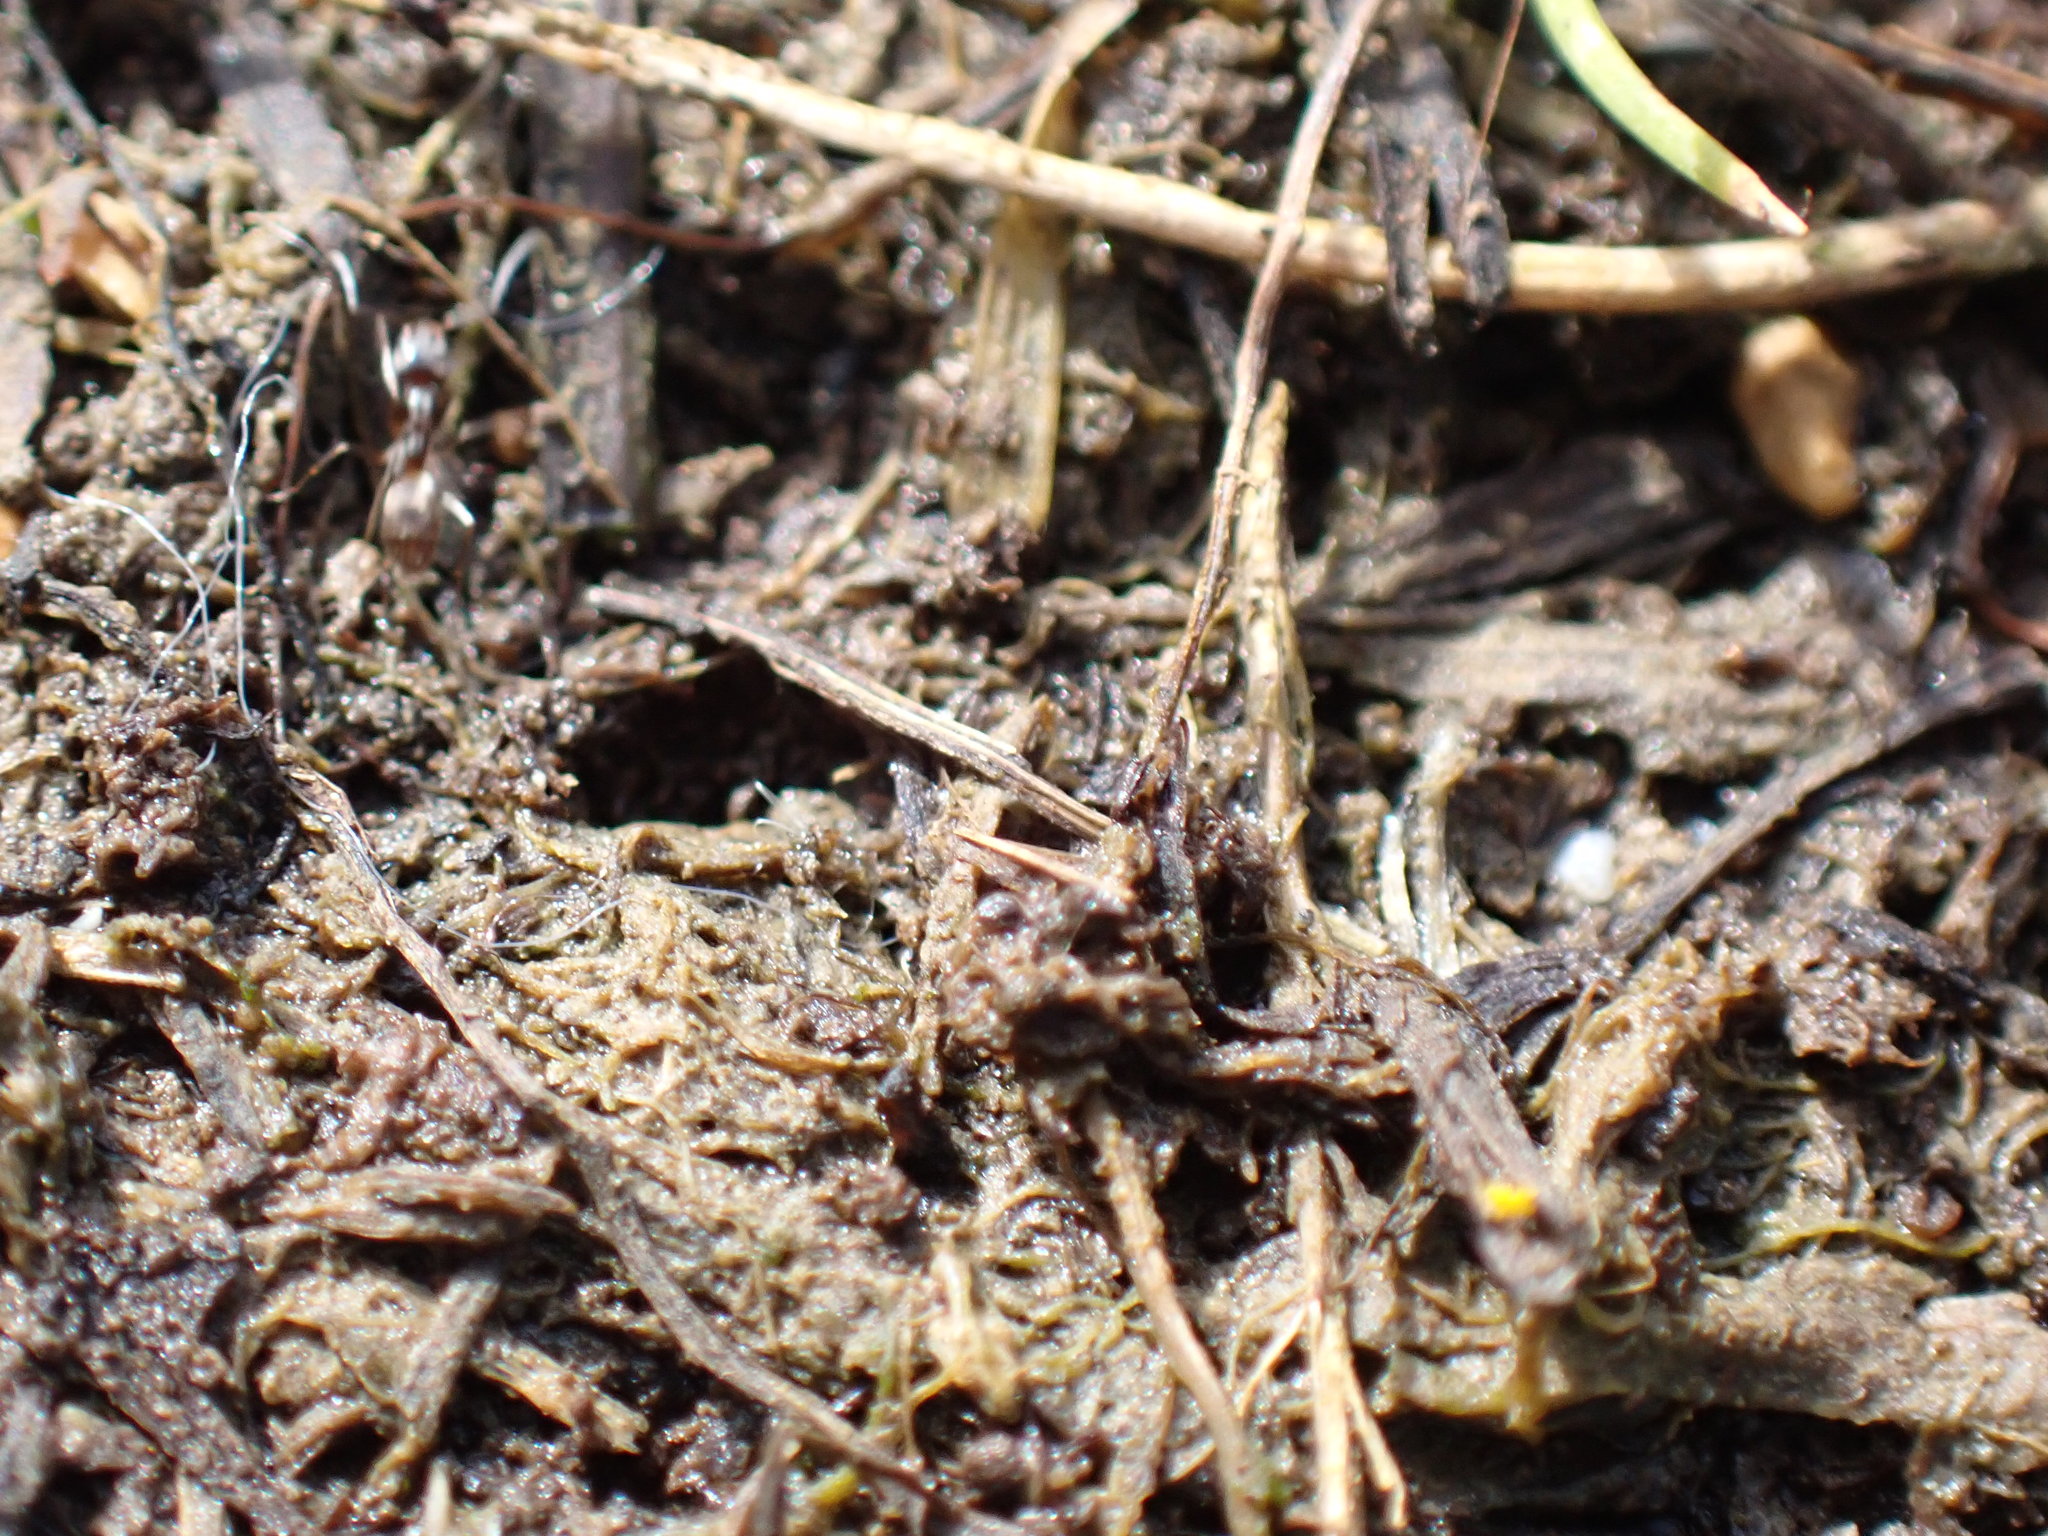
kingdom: Animalia
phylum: Arthropoda
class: Insecta
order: Hymenoptera
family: Formicidae
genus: Tapinoma
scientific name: Tapinoma sessile
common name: Odorous house ant
